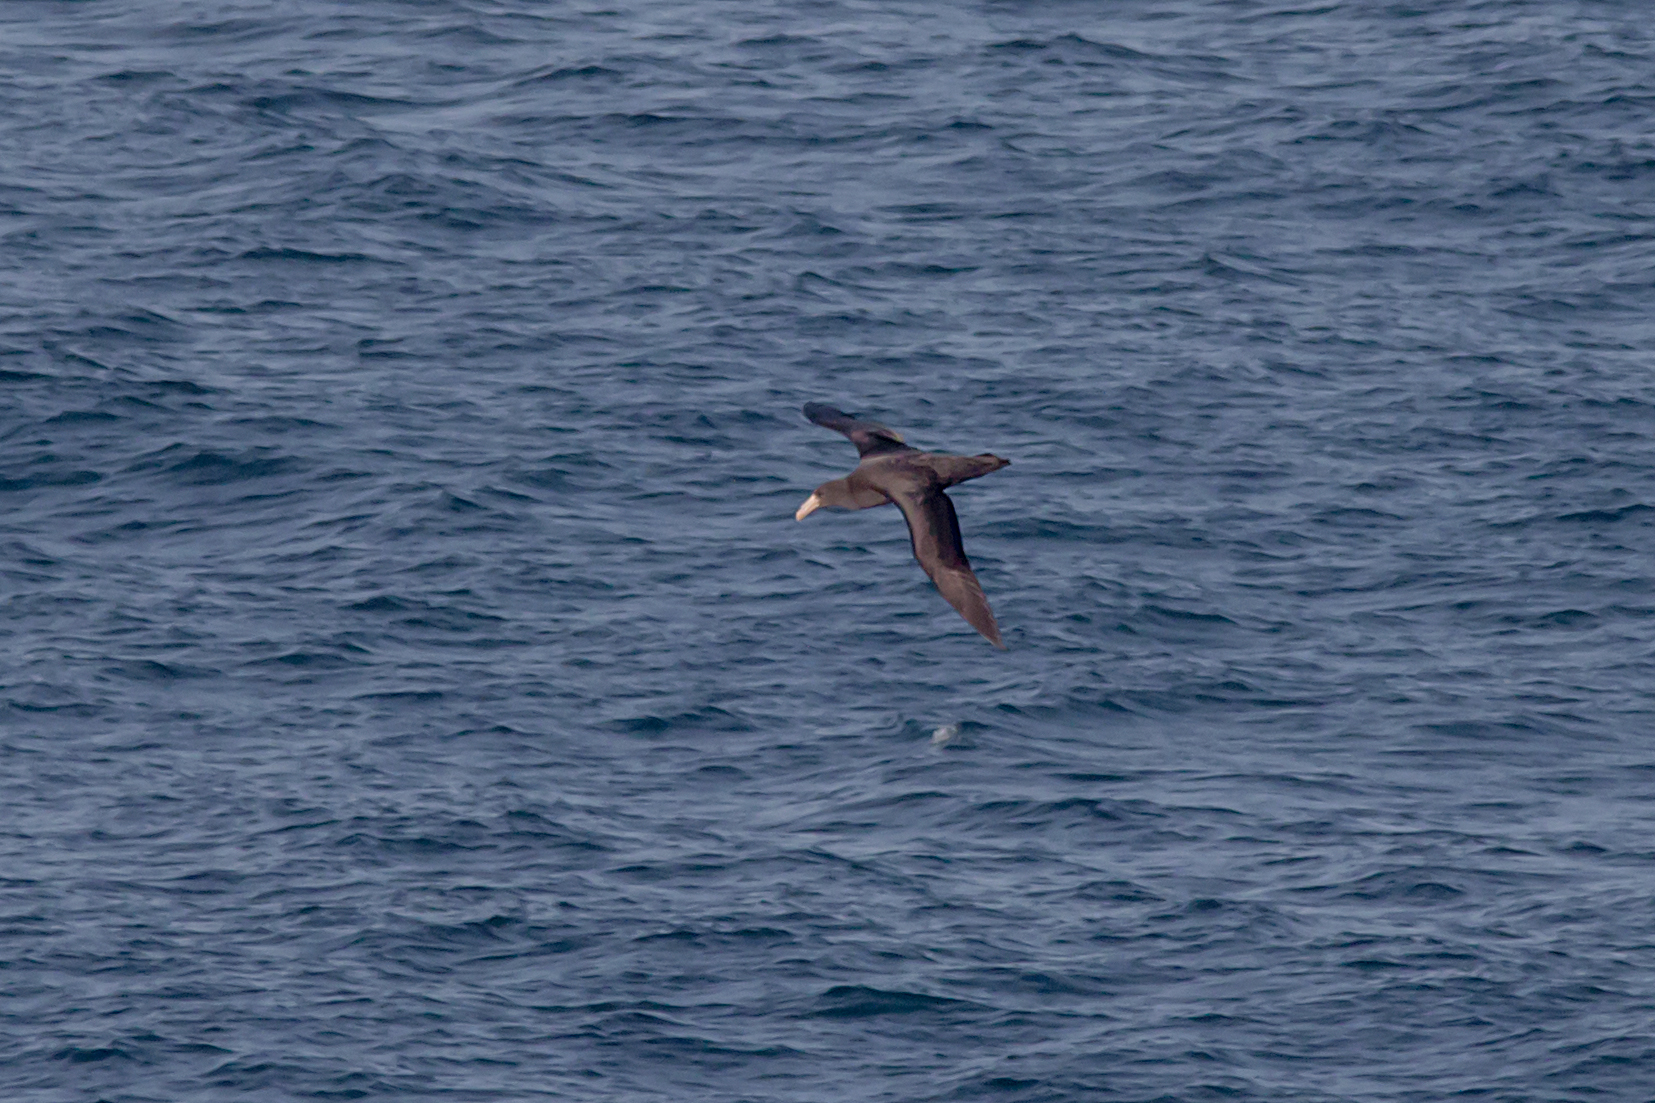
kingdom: Animalia
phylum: Chordata
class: Aves
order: Procellariiformes
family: Procellariidae
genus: Macronectes
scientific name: Macronectes halli
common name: Northern giant petrel
